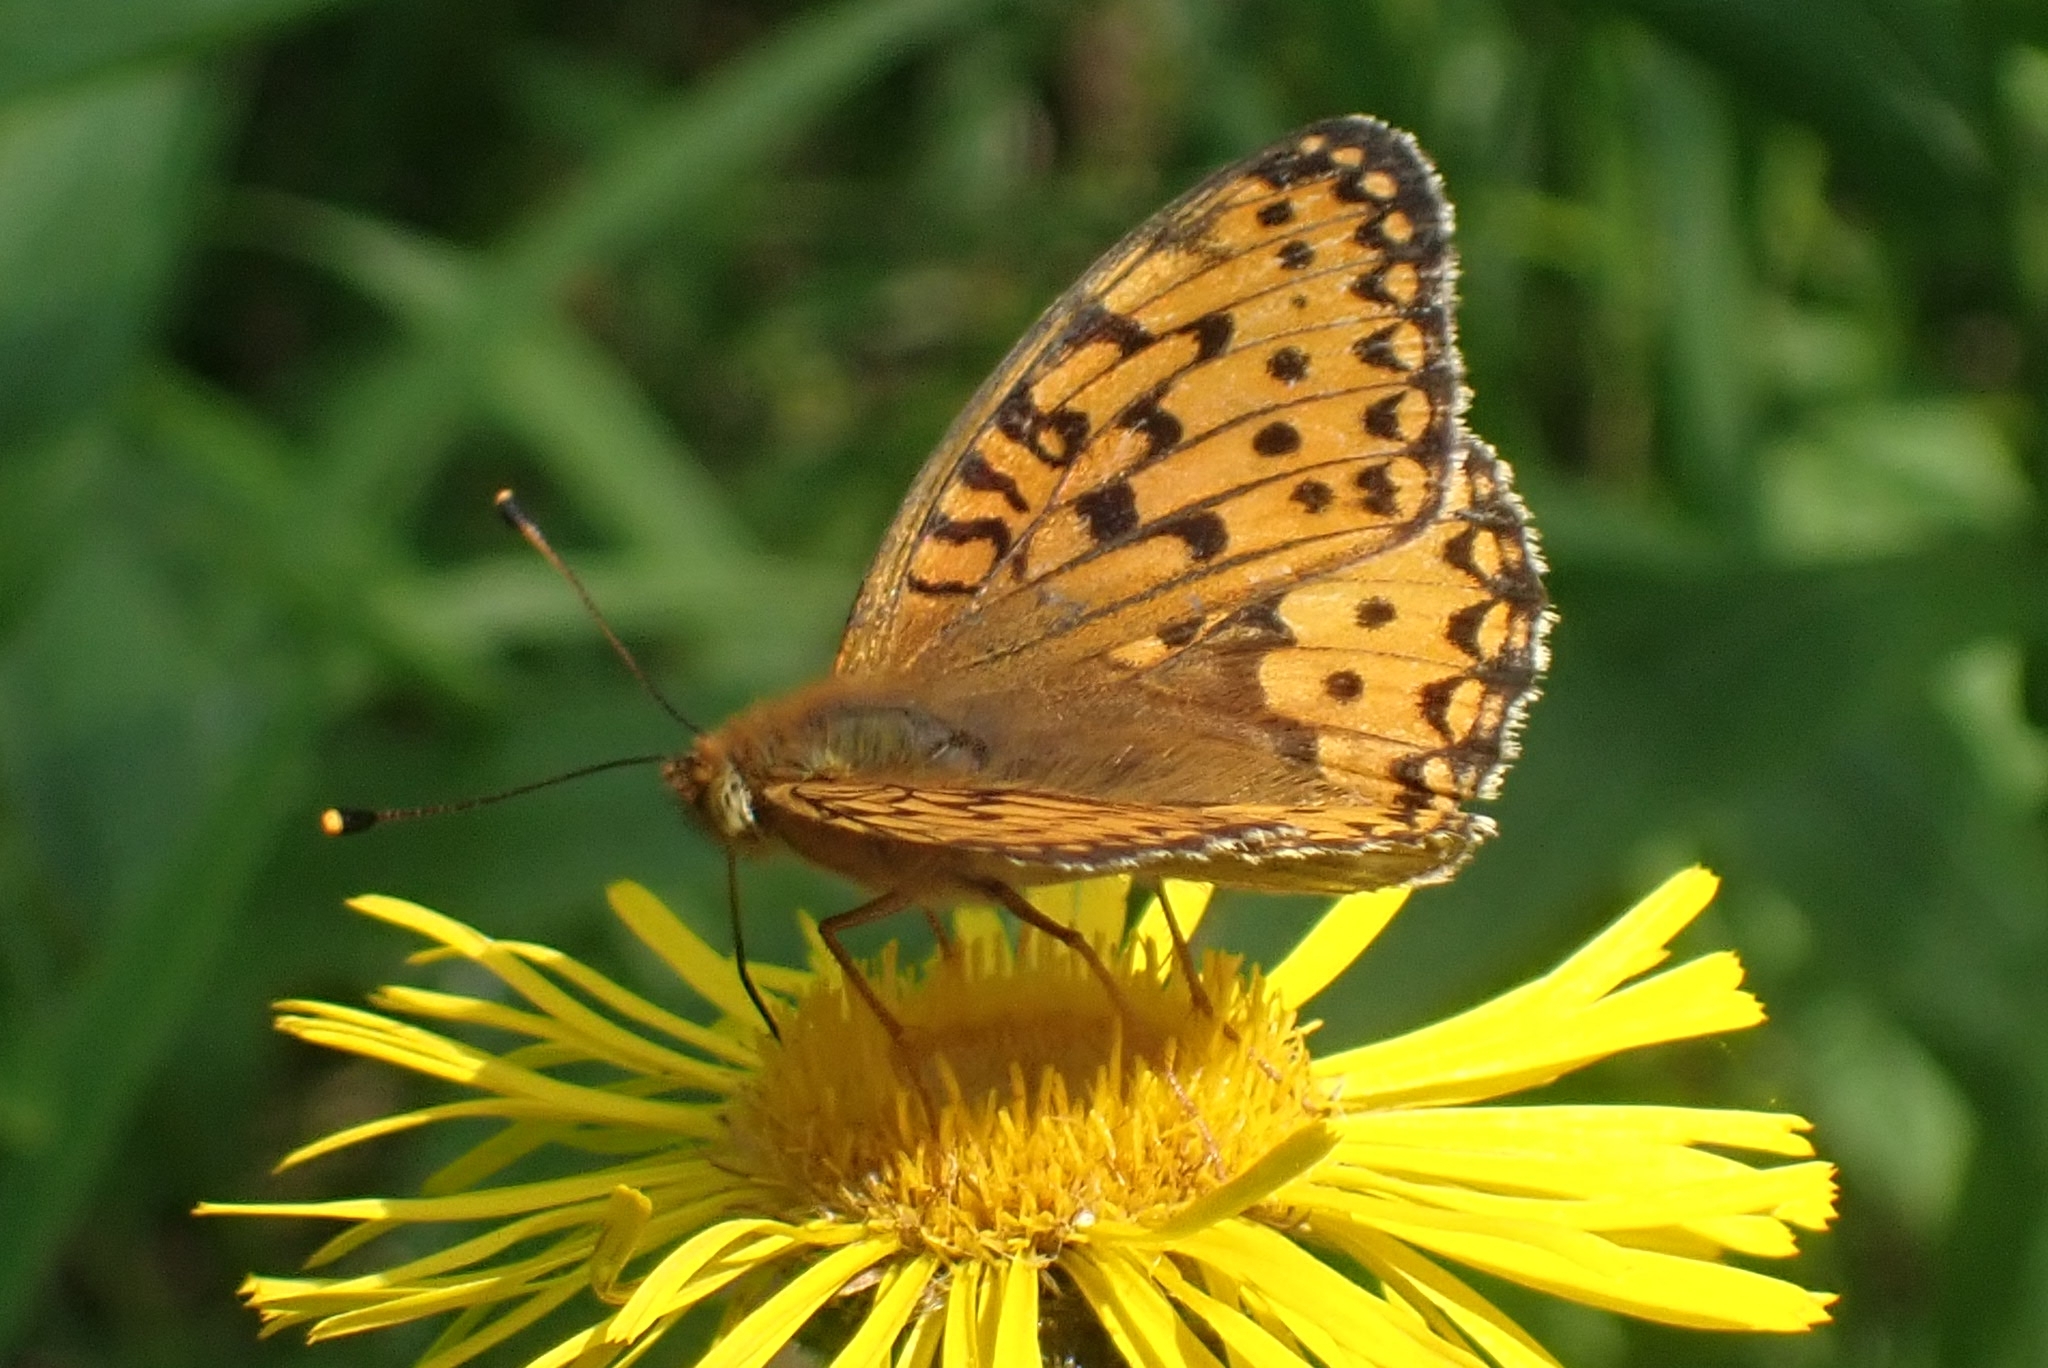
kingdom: Animalia
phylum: Arthropoda
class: Insecta
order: Lepidoptera
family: Nymphalidae
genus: Speyeria
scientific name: Speyeria aglaja
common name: Dark green fritillary
